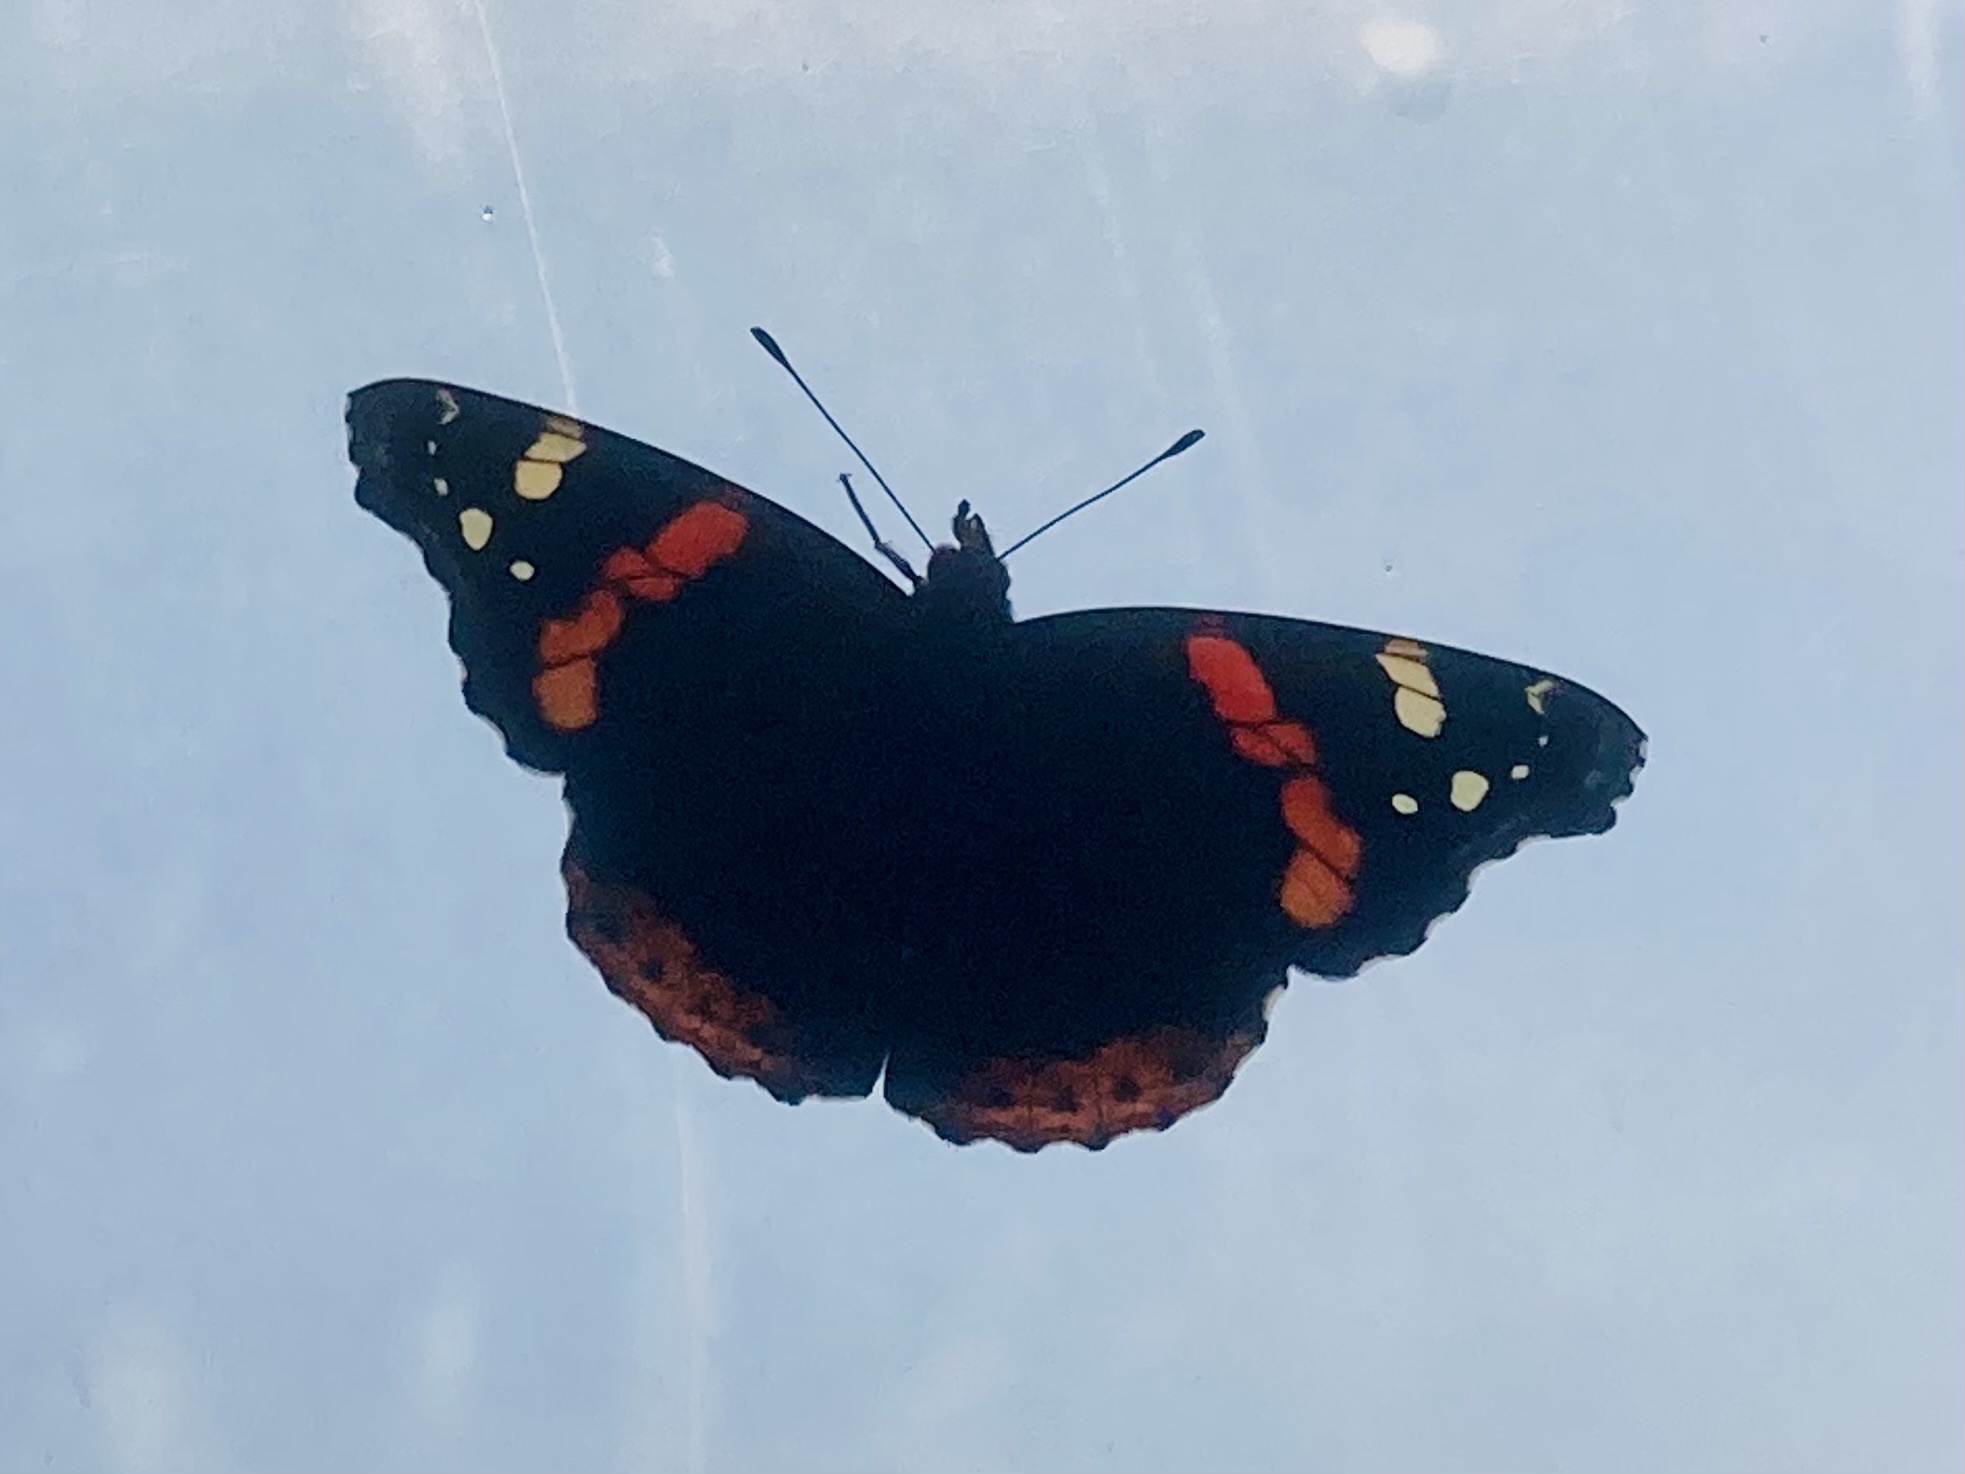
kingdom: Animalia
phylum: Arthropoda
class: Insecta
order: Lepidoptera
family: Nymphalidae
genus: Vanessa
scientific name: Vanessa atalanta
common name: Red admiral
